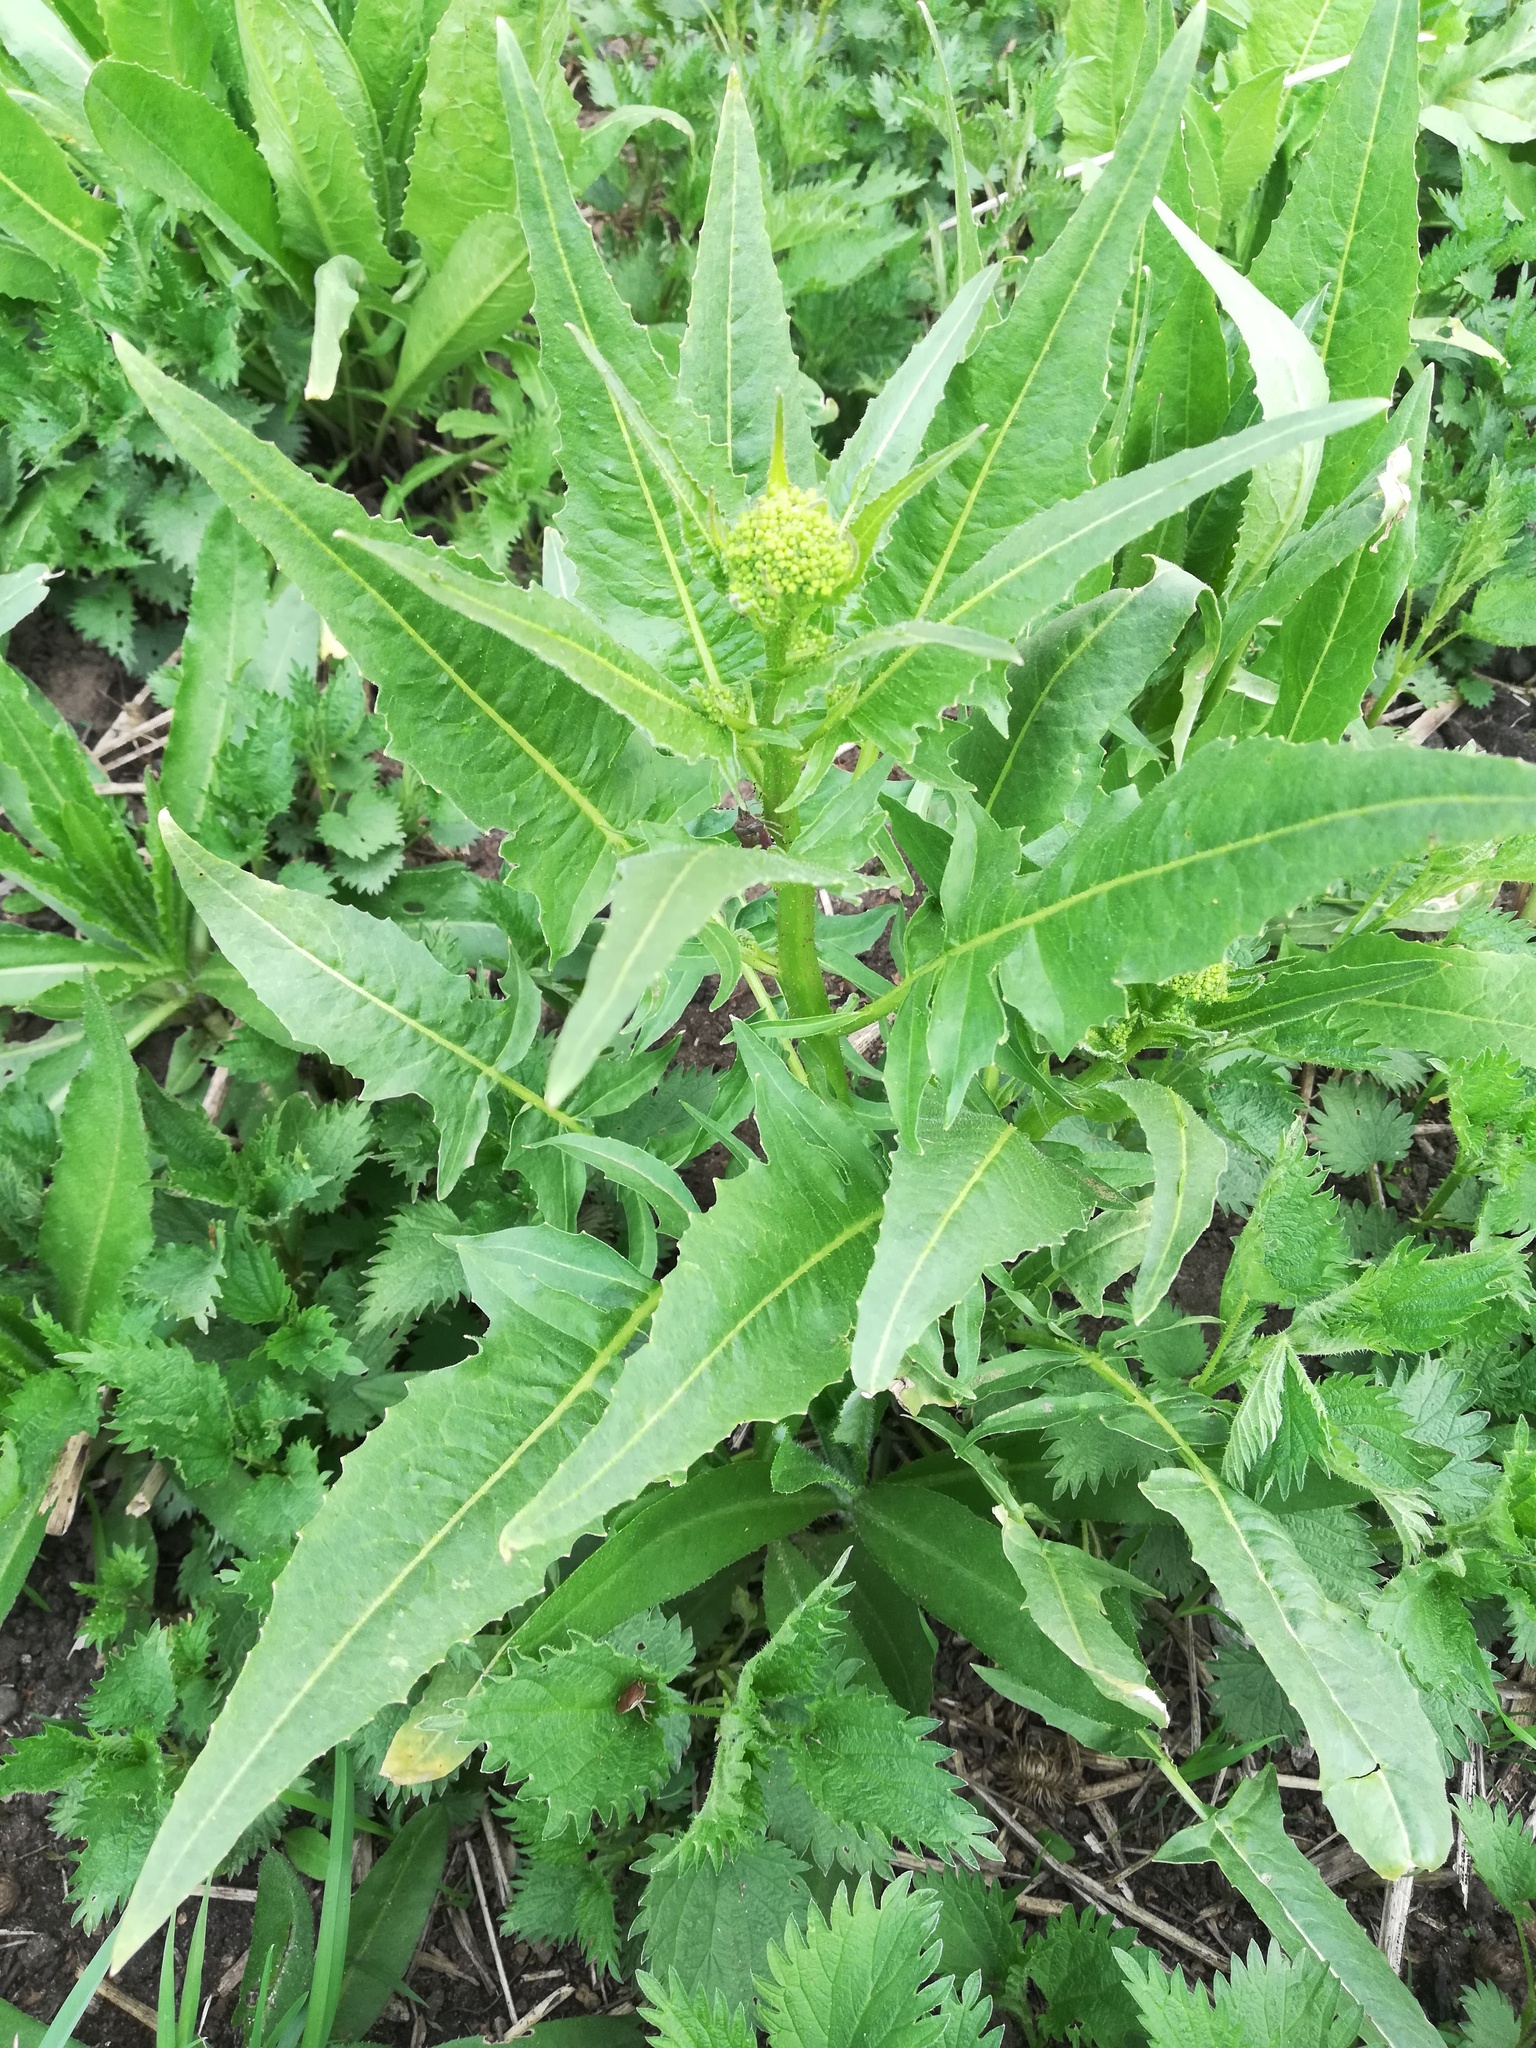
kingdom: Plantae
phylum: Tracheophyta
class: Magnoliopsida
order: Brassicales
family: Brassicaceae
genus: Bunias
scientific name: Bunias orientalis
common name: Warty-cabbage
